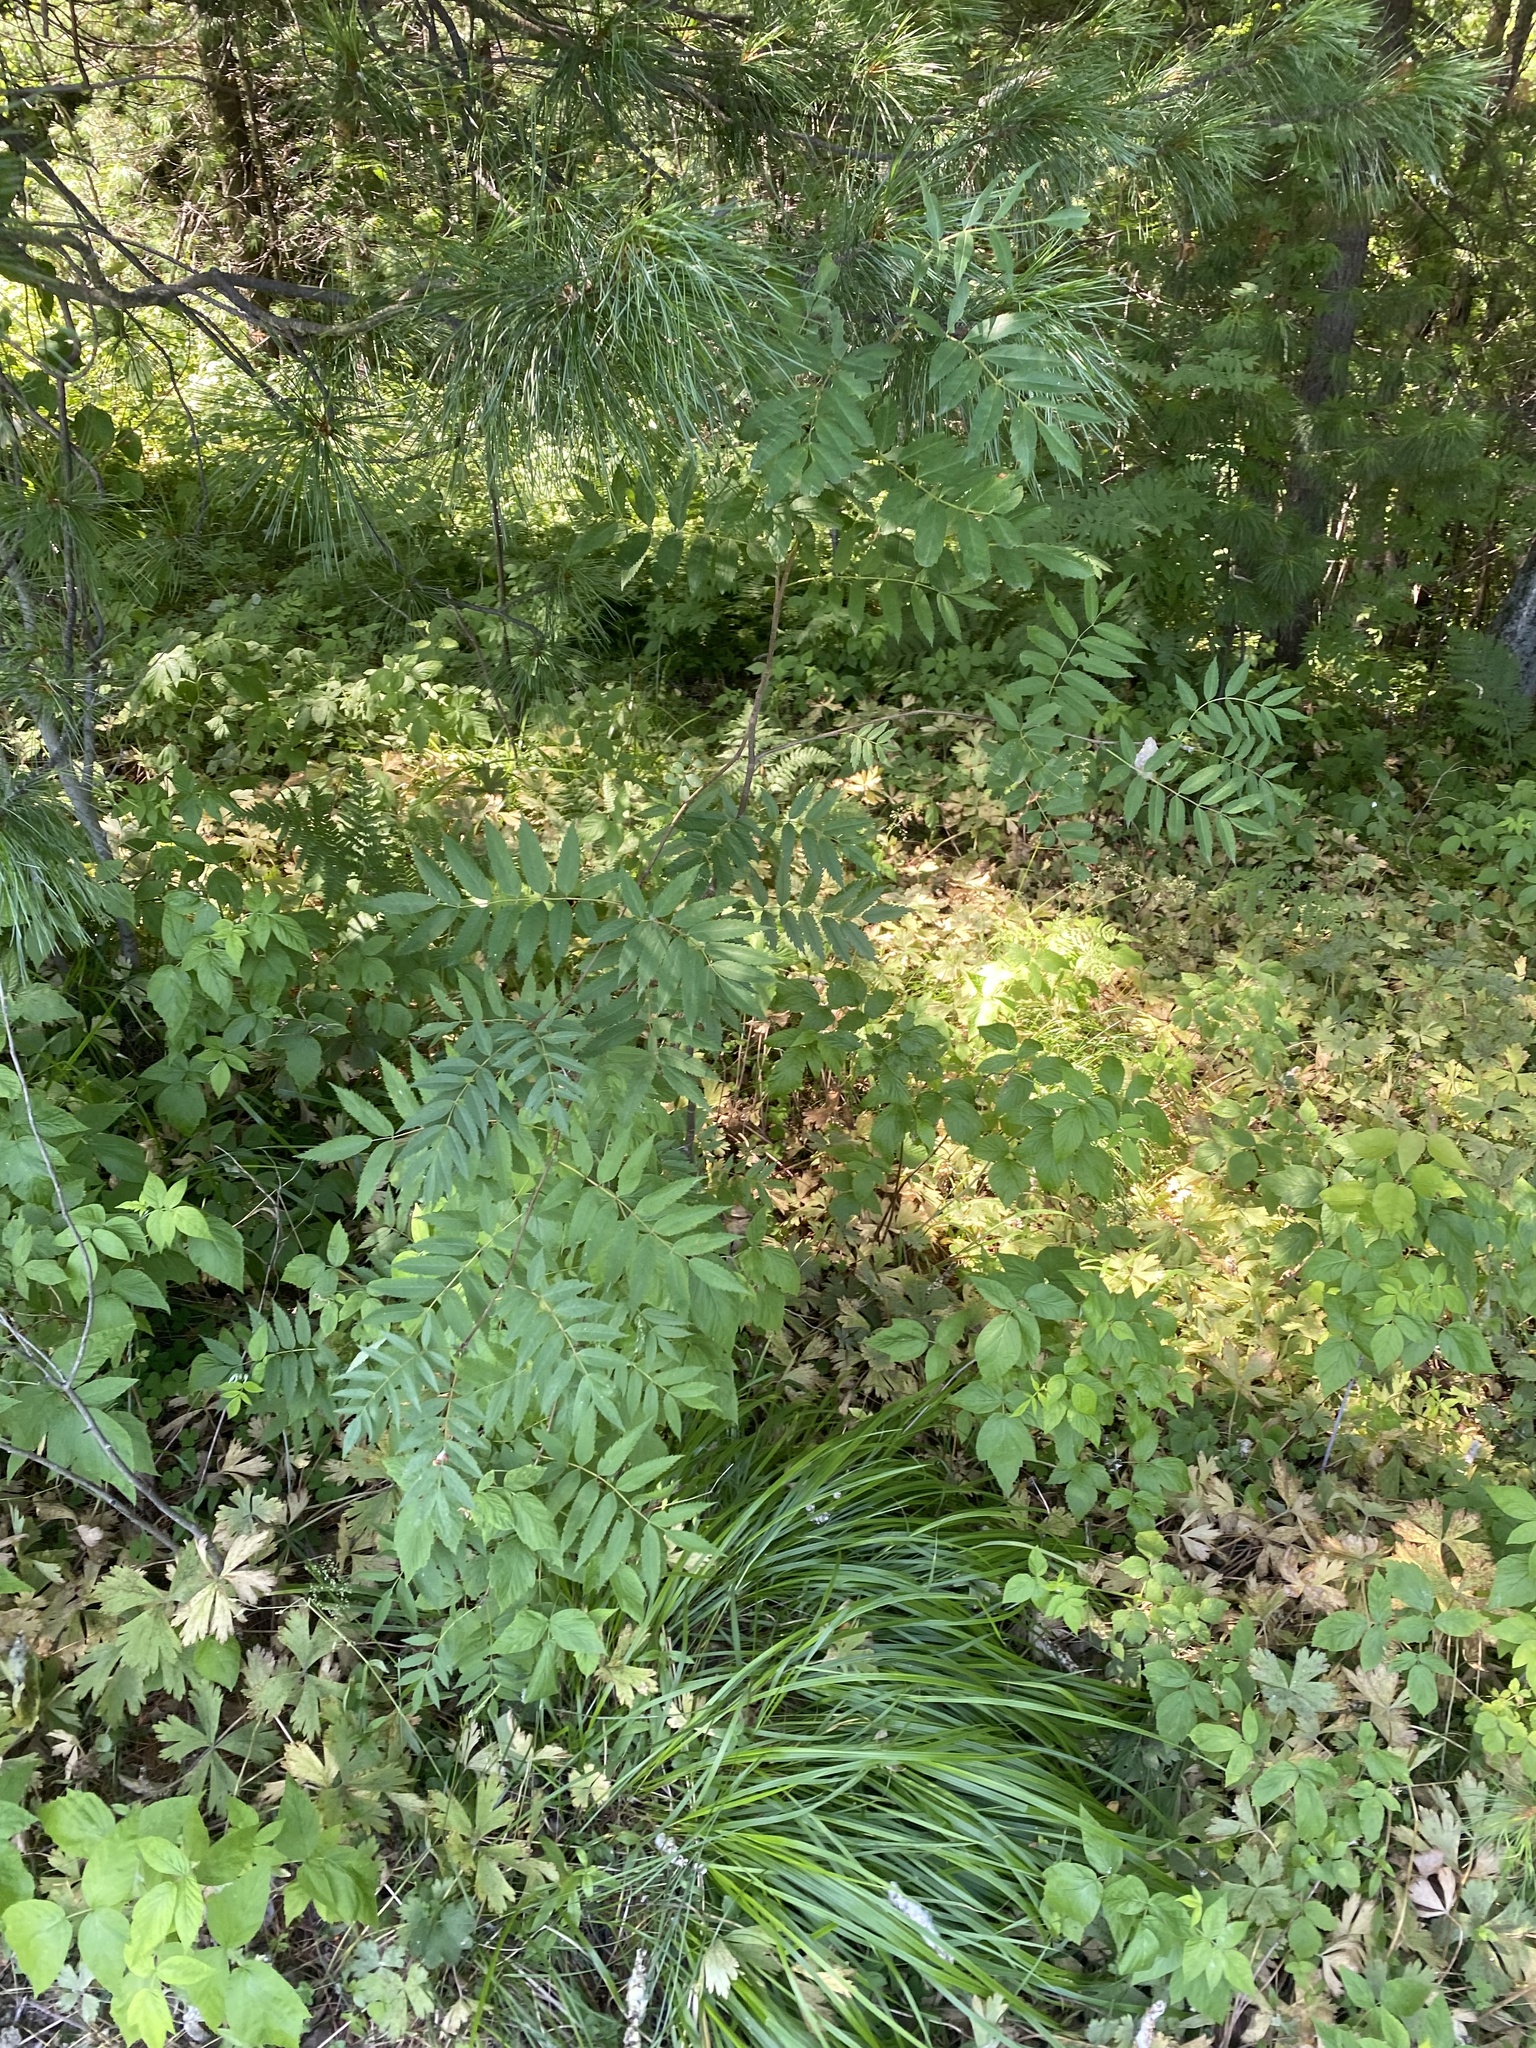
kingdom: Plantae
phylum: Tracheophyta
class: Magnoliopsida
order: Rosales
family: Rosaceae
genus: Sorbus
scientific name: Sorbus aucuparia
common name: Rowan
